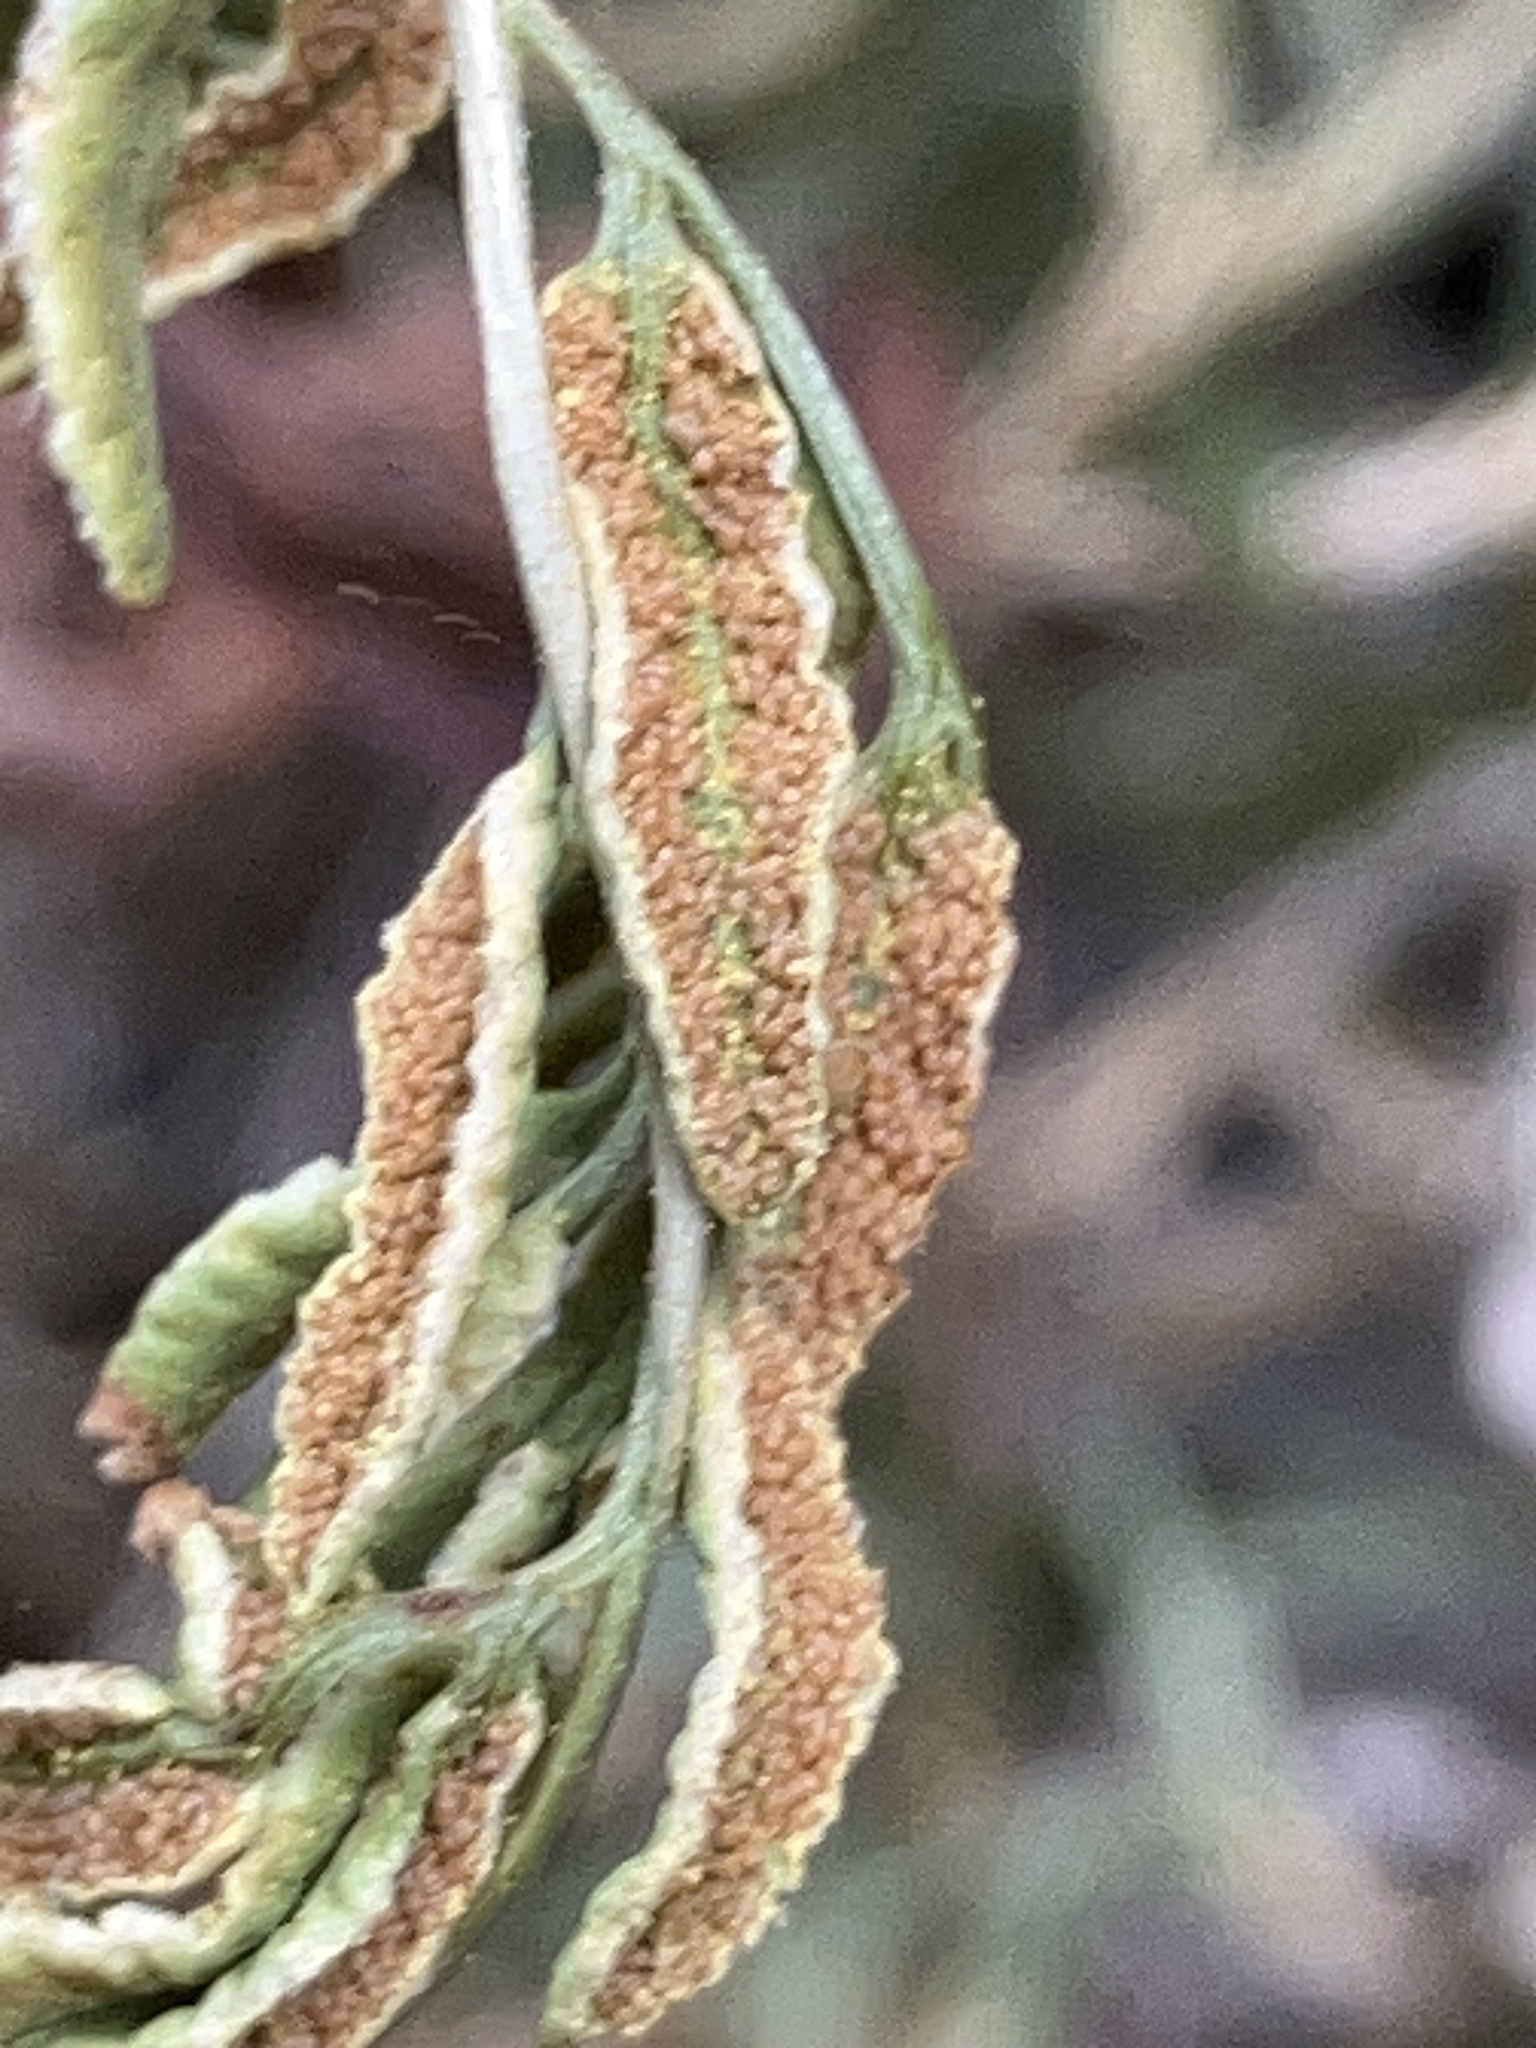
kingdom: Plantae
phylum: Tracheophyta
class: Polypodiopsida
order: Polypodiales
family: Pteridaceae
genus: Cryptogramma
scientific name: Cryptogramma acrostichoides
